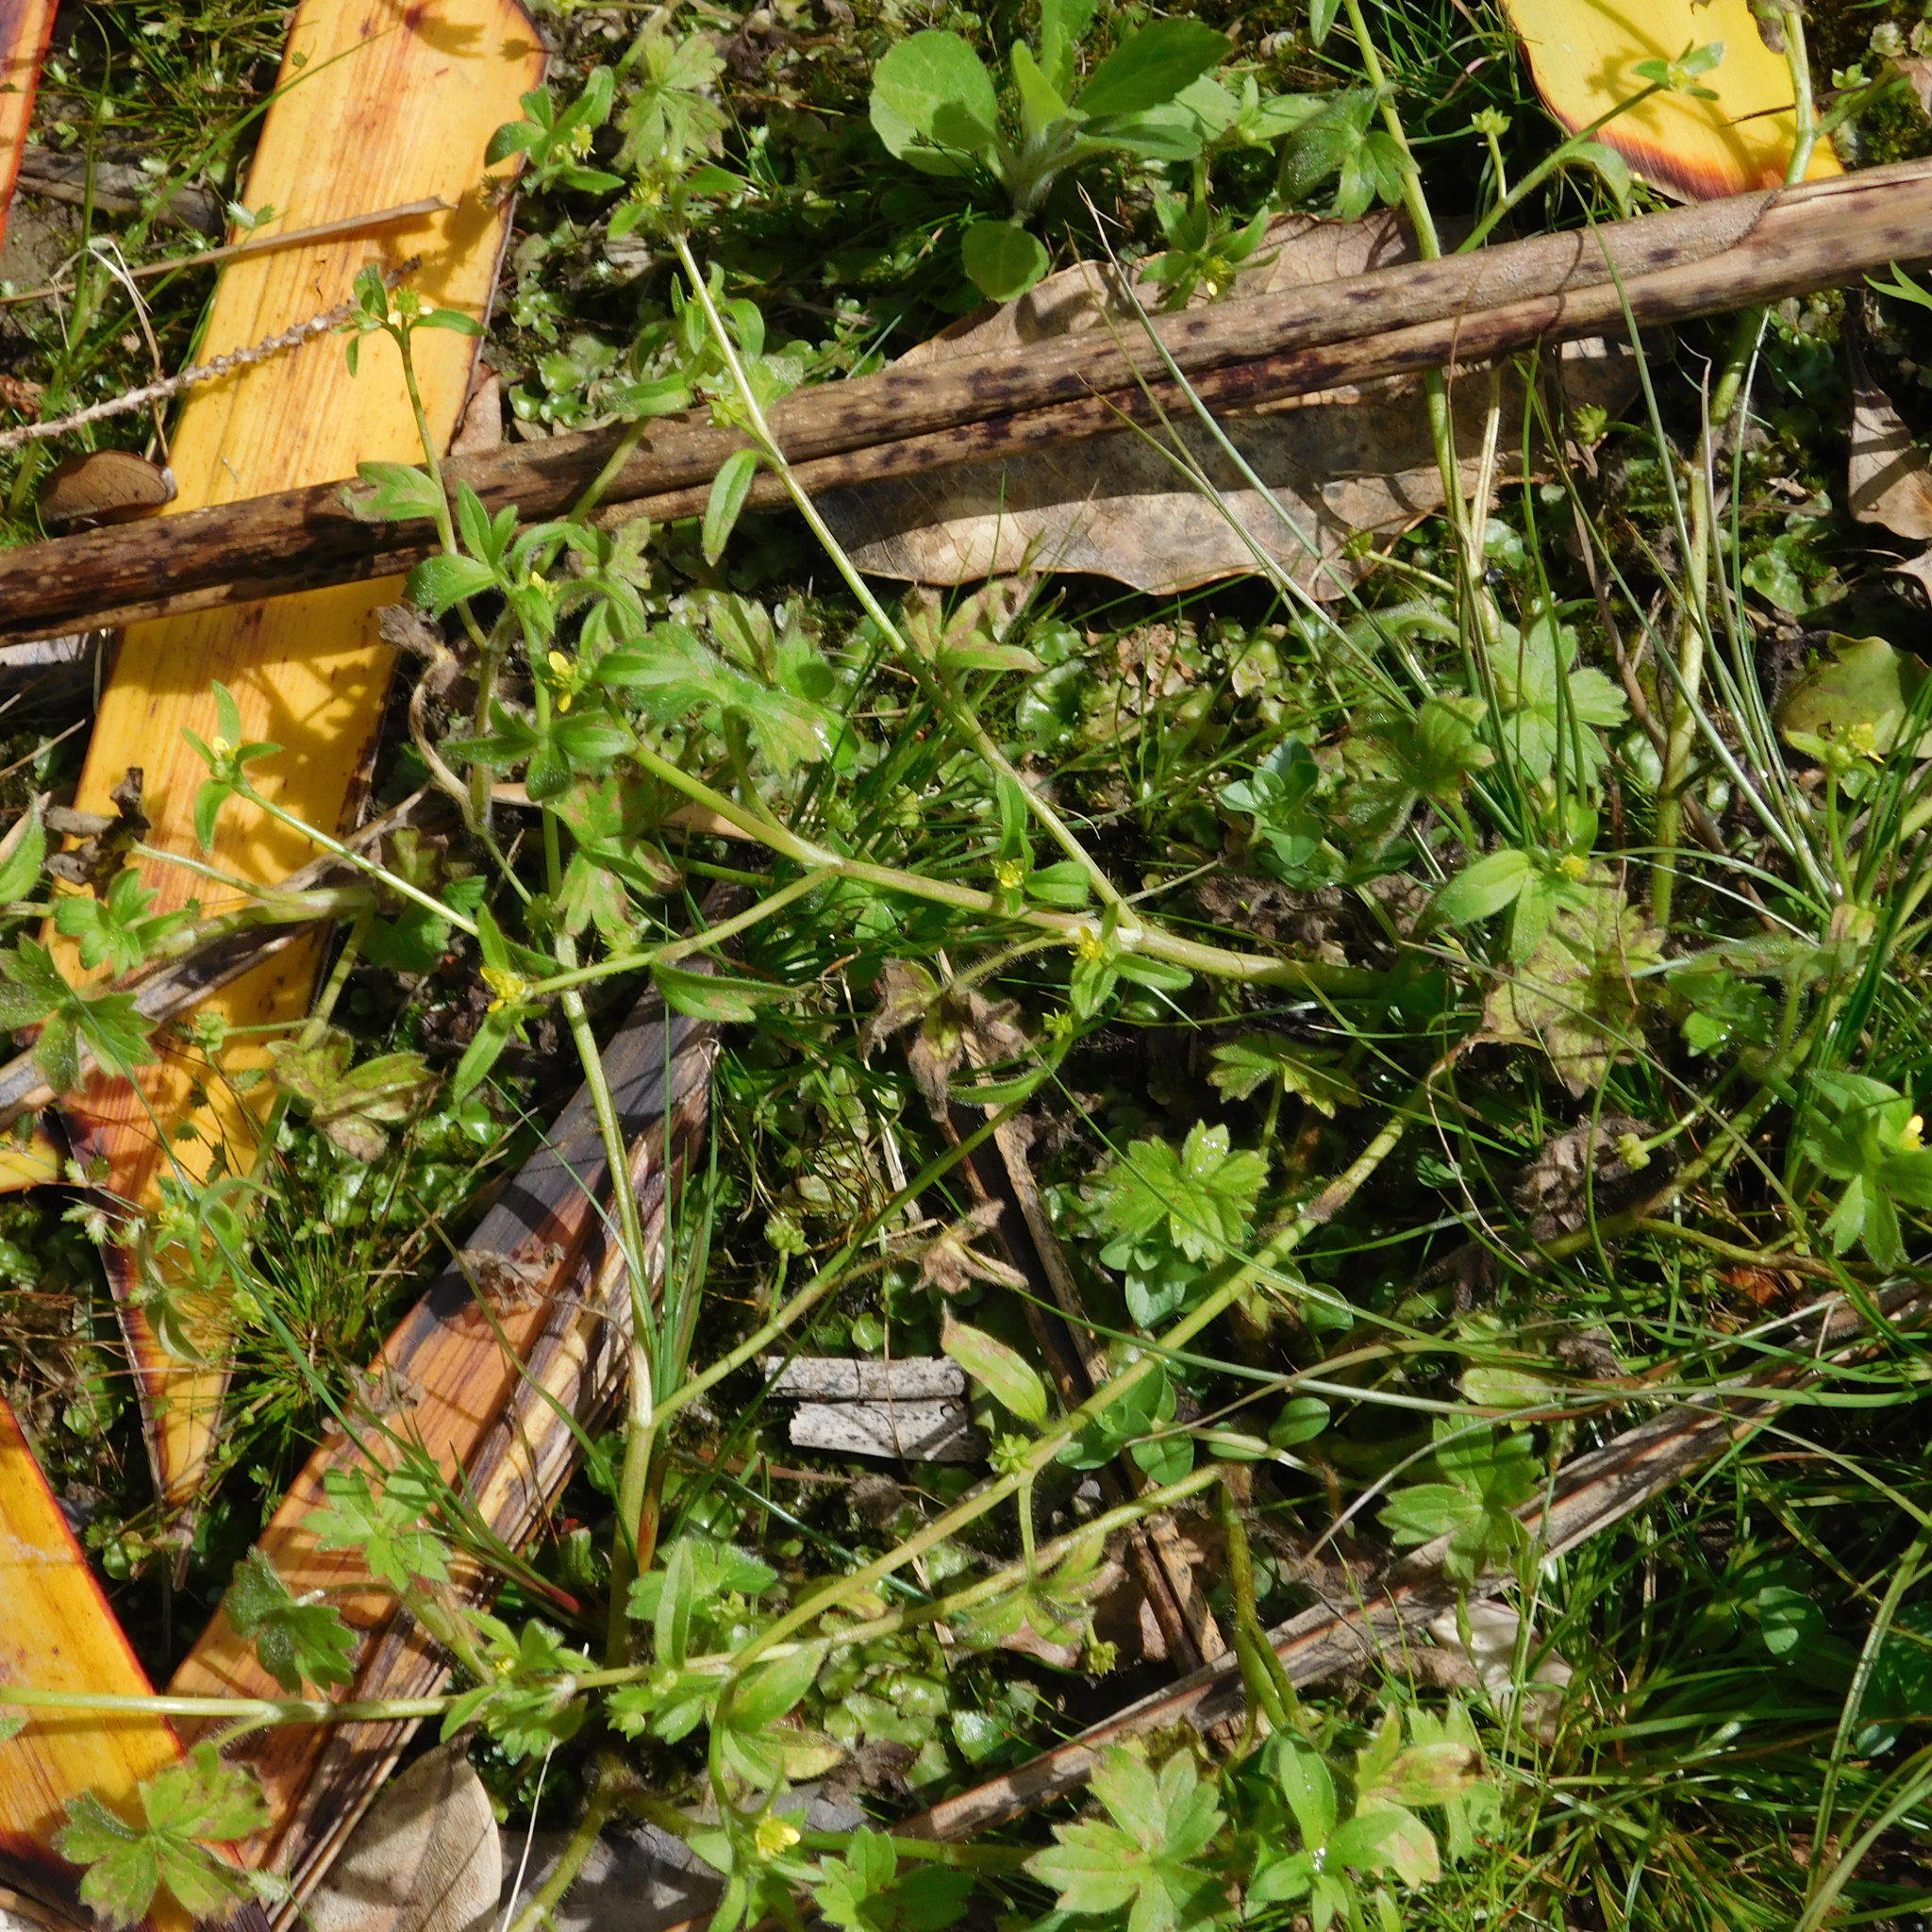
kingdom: Plantae
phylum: Tracheophyta
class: Magnoliopsida
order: Ranunculales
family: Ranunculaceae
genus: Ranunculus
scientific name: Ranunculus parviflorus
